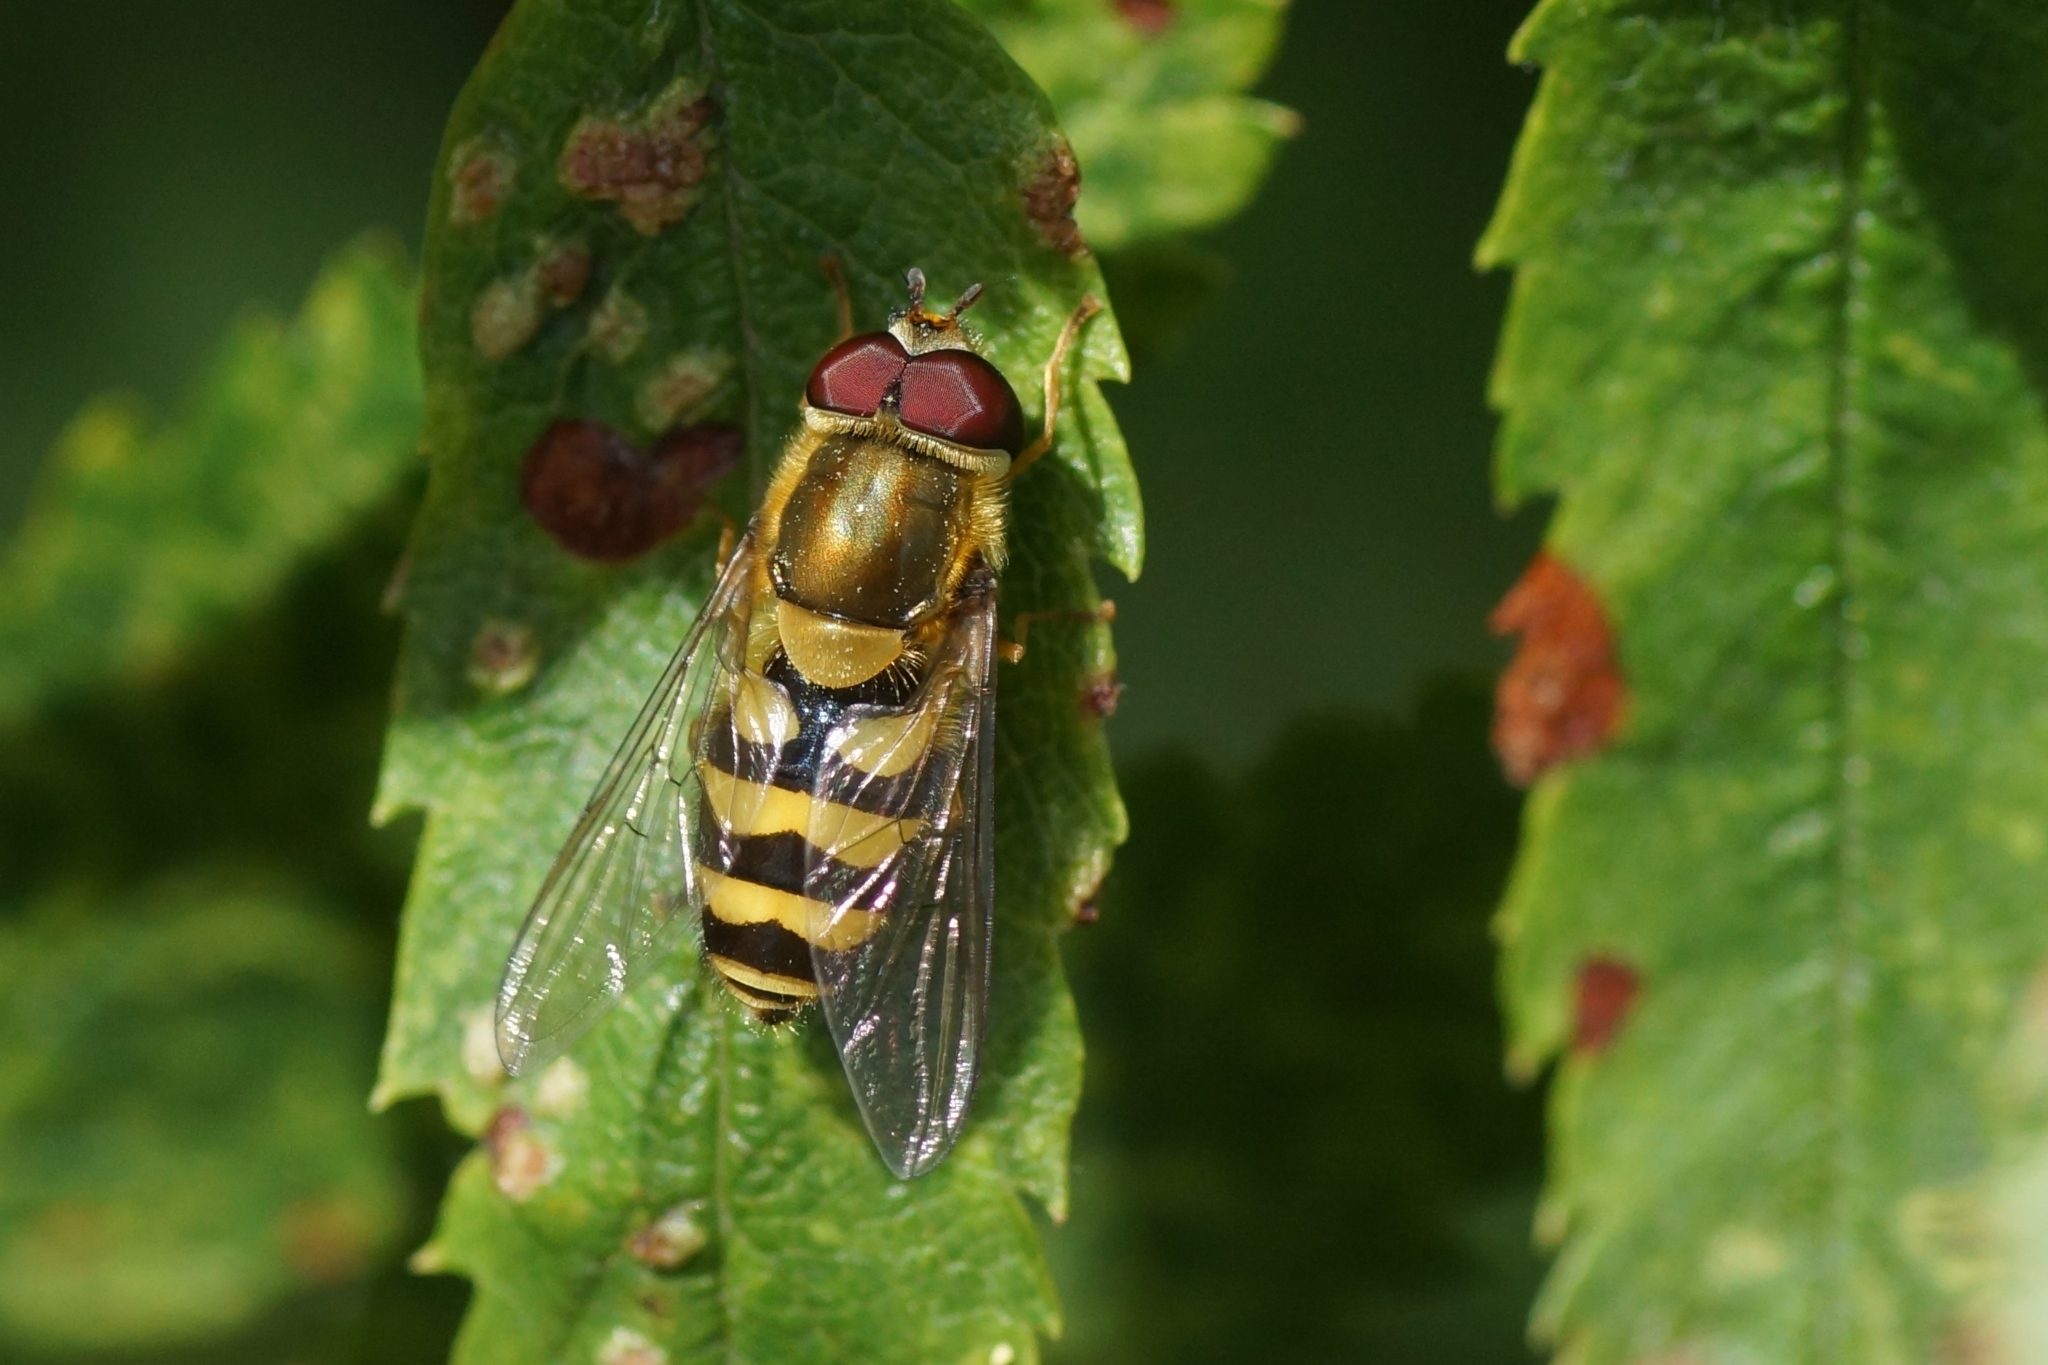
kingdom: Animalia
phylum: Arthropoda
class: Insecta
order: Diptera
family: Syrphidae
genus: Syrphus
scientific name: Syrphus vitripennis
